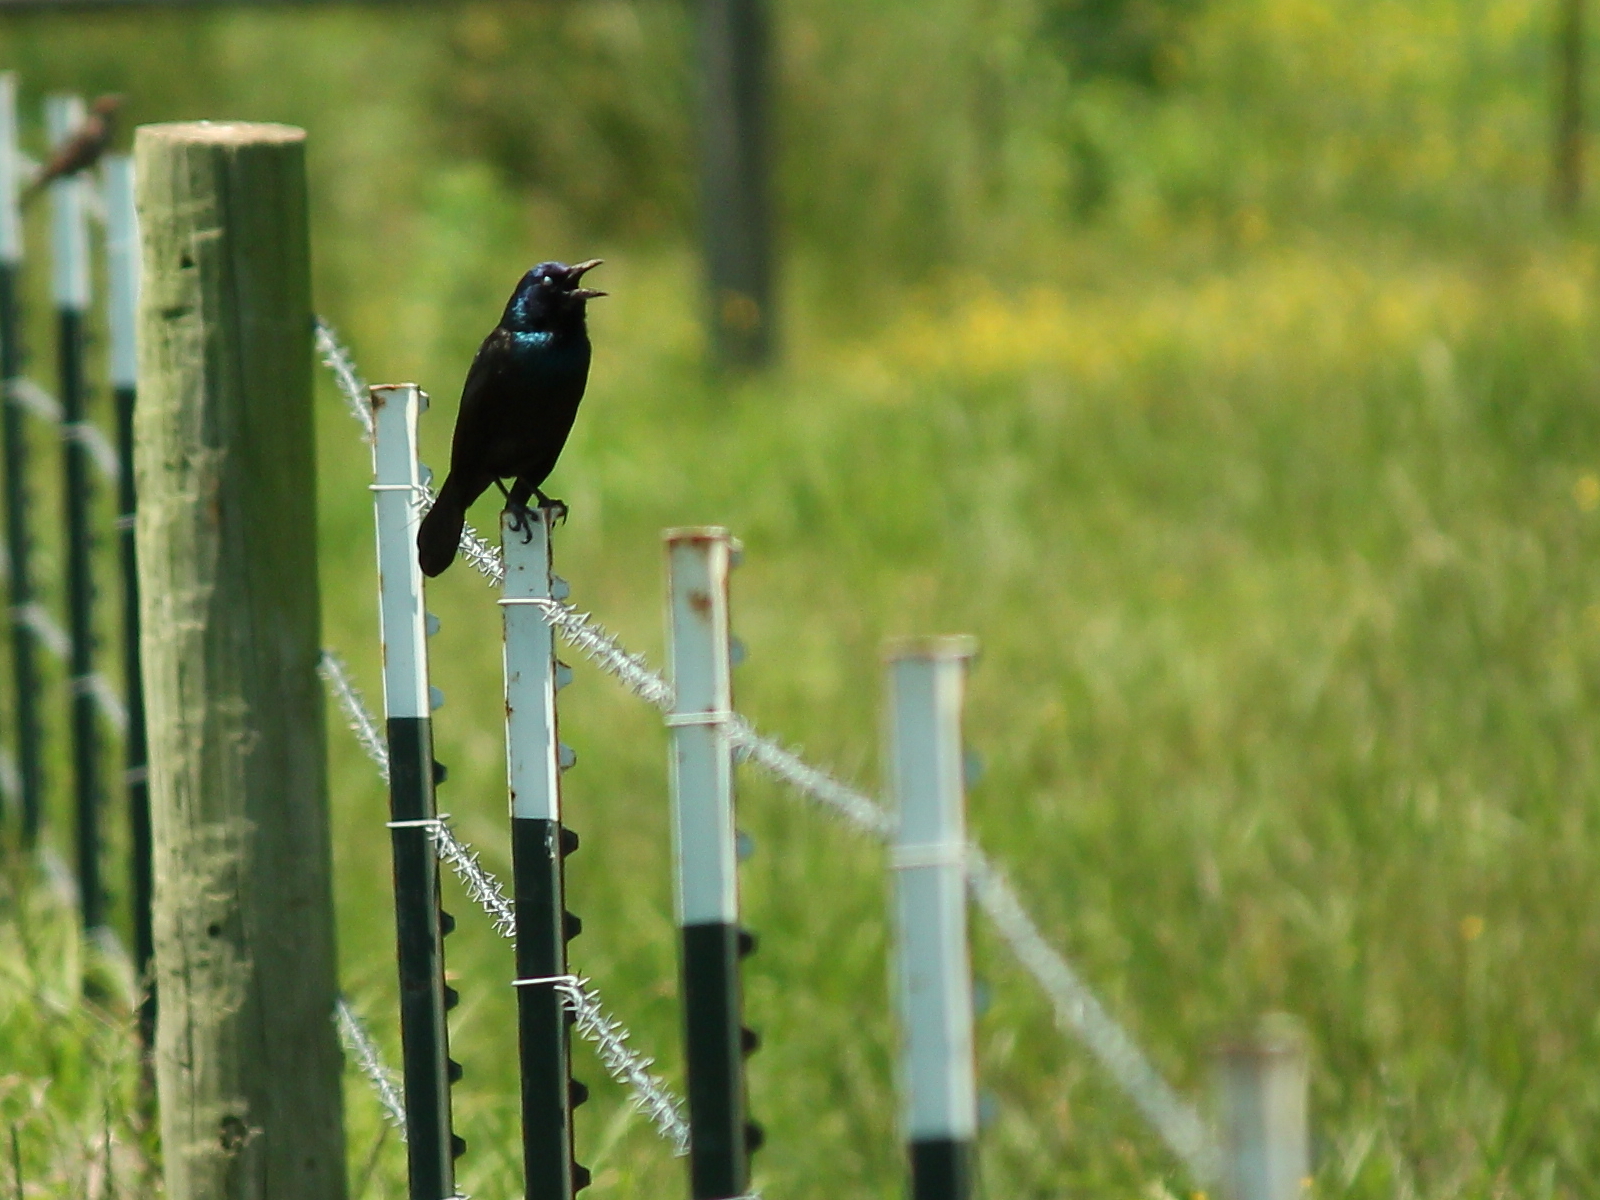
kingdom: Animalia
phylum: Chordata
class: Aves
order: Passeriformes
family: Icteridae
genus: Quiscalus
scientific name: Quiscalus quiscula
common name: Common grackle
